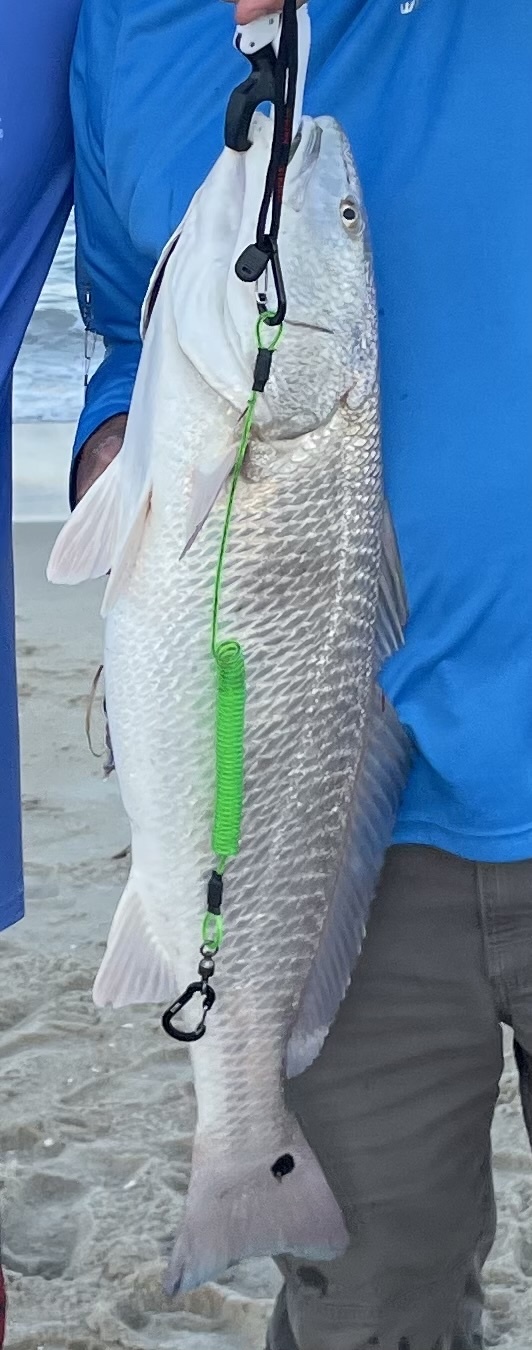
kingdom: Animalia
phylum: Chordata
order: Perciformes
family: Sciaenidae
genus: Sciaenops
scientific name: Sciaenops ocellatus
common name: Red drum
